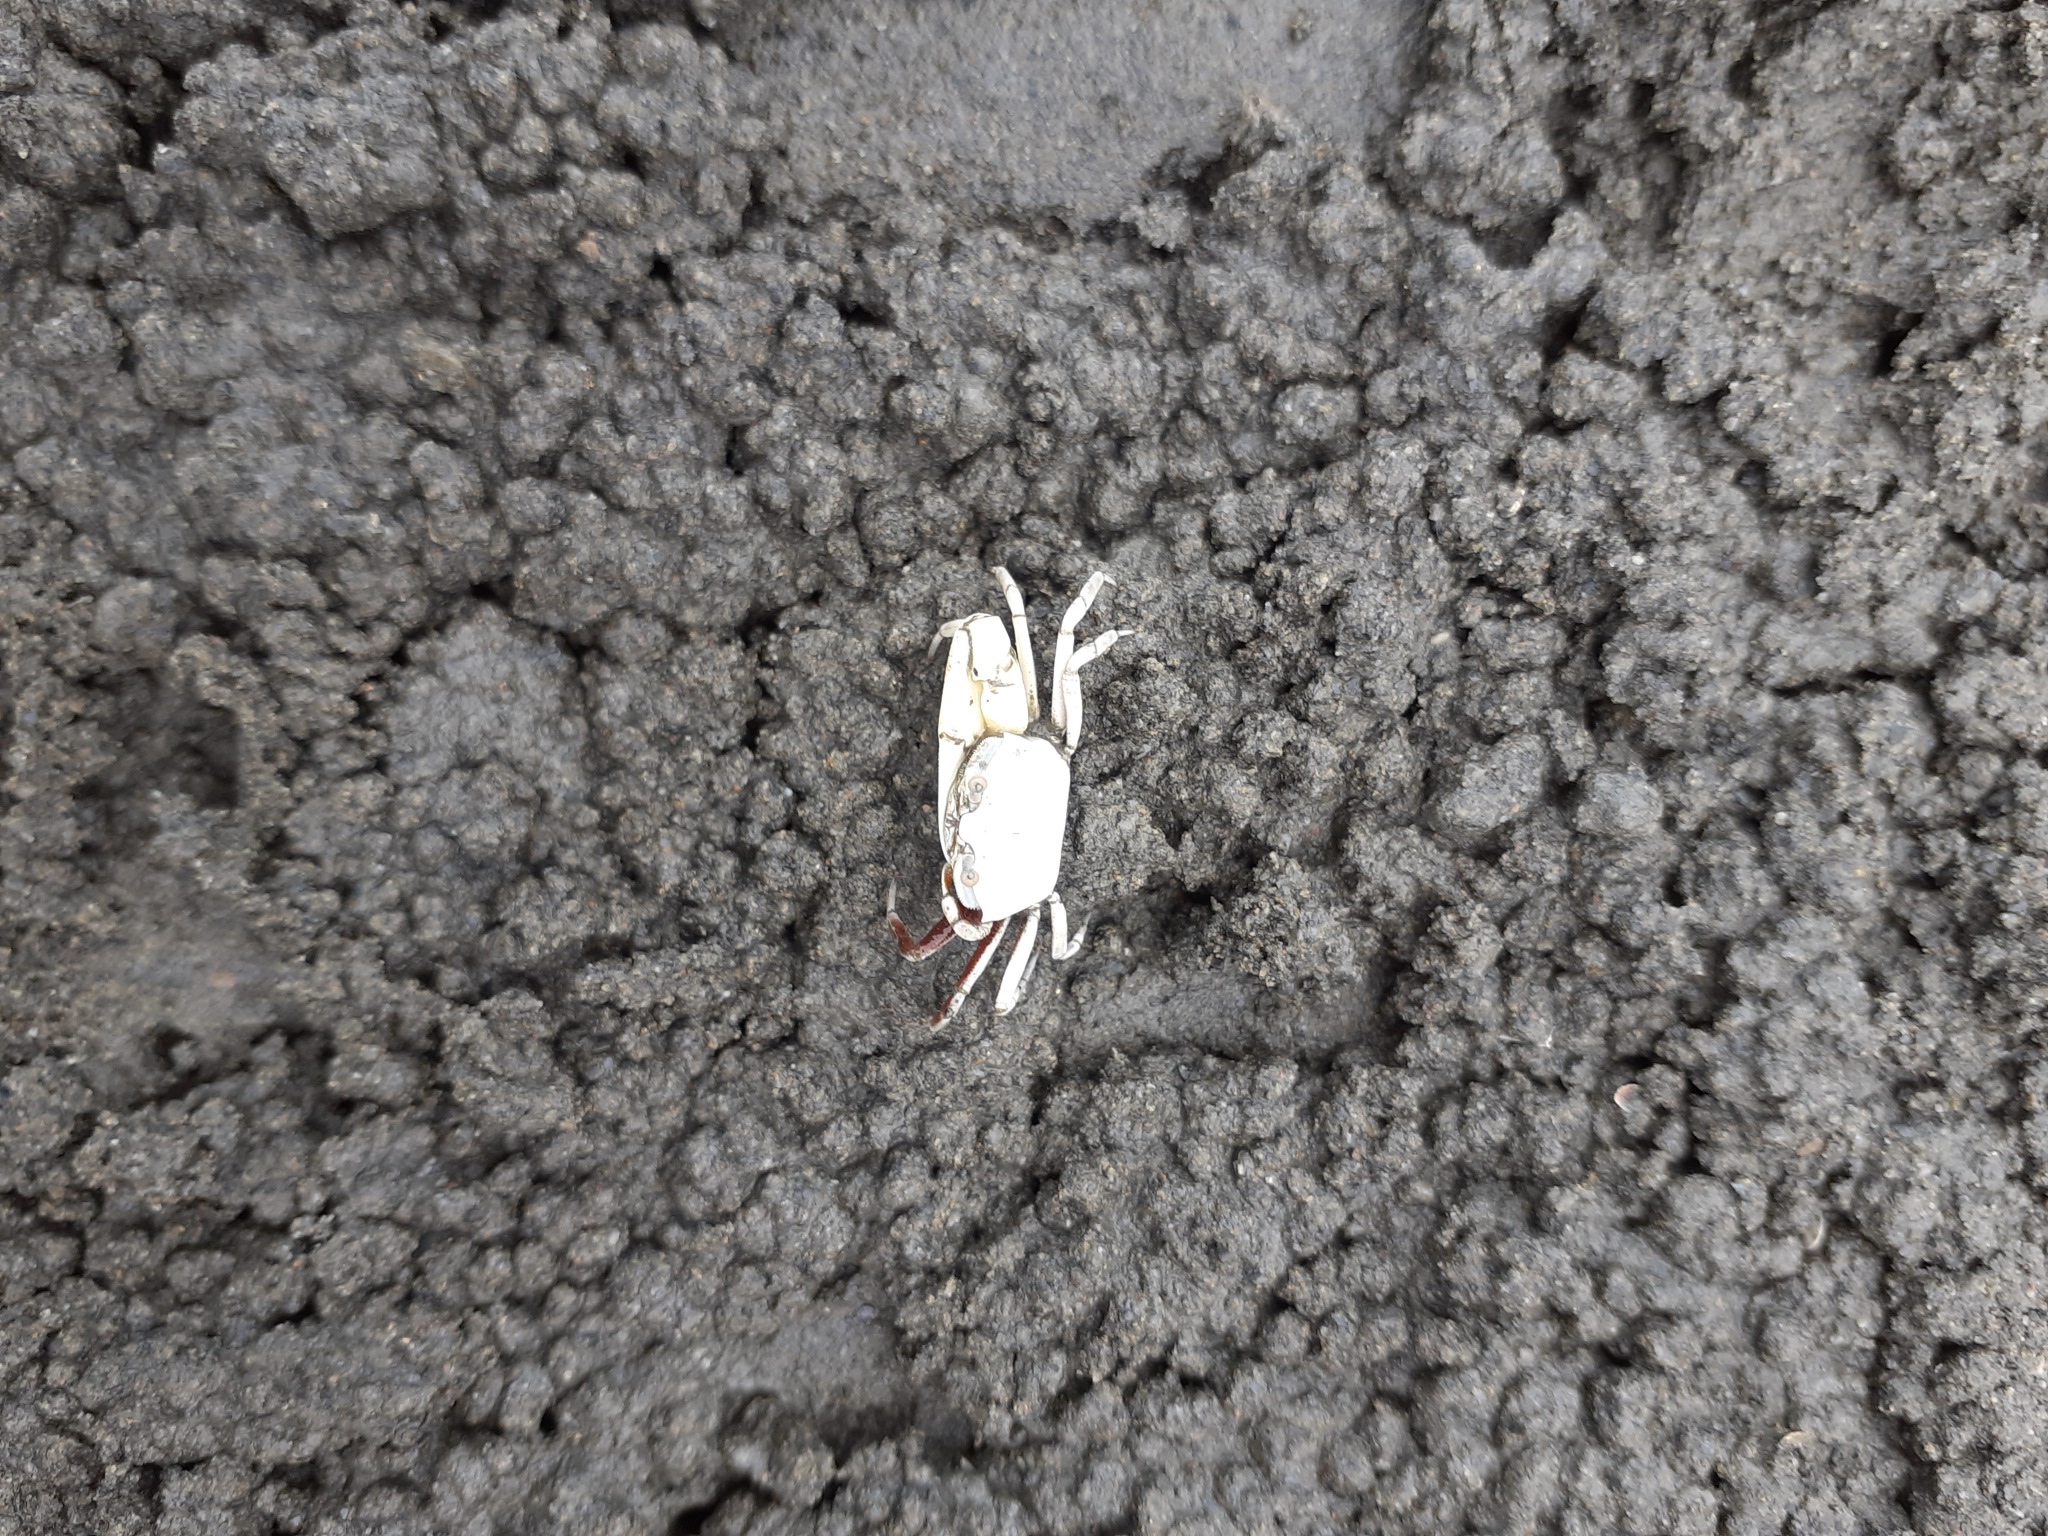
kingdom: Animalia
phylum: Arthropoda
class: Malacostraca
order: Decapoda
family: Ocypodidae
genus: Austruca
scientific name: Austruca lactea
